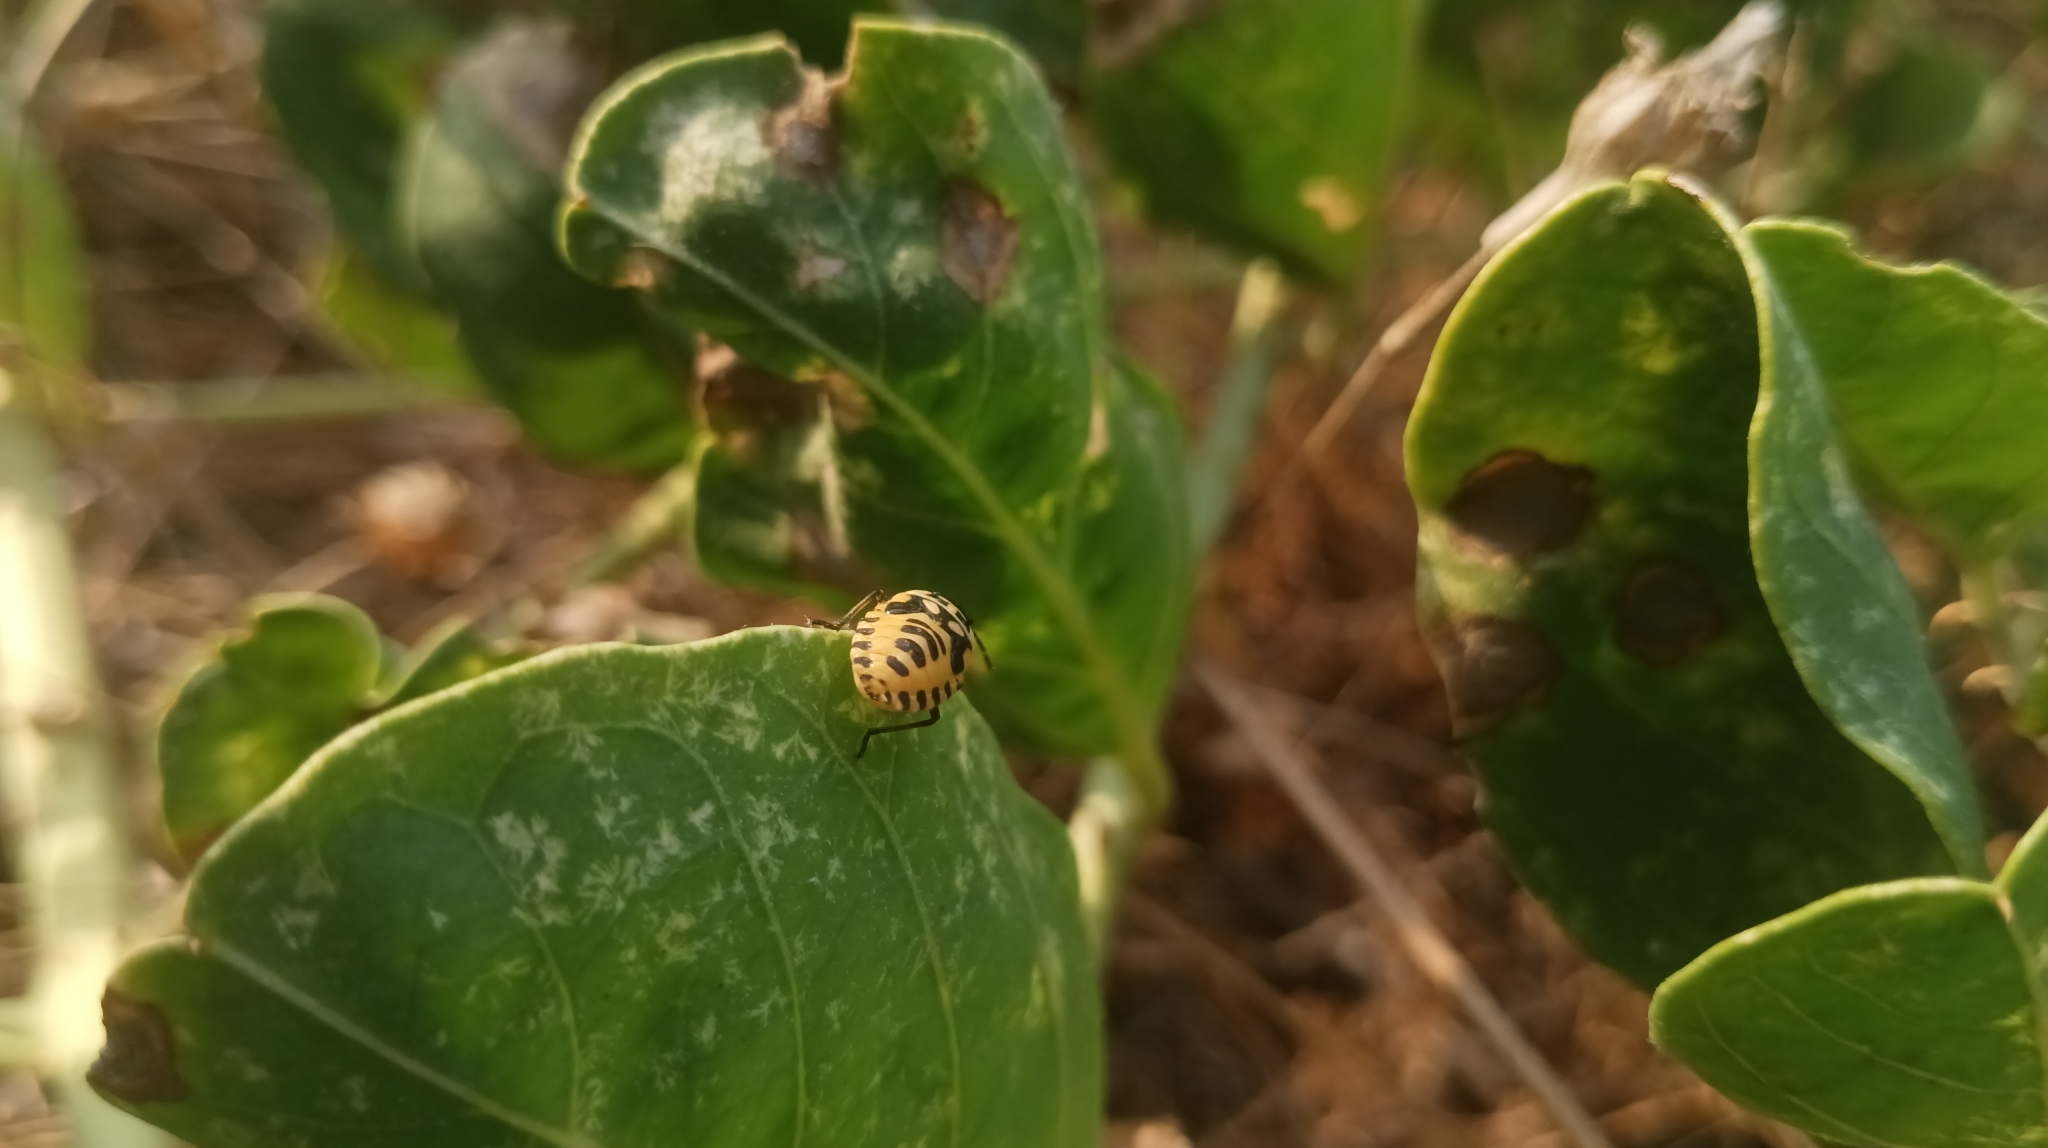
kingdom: Animalia
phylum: Arthropoda
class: Insecta
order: Hemiptera
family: Pentatomidae
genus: Eurydema
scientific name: Eurydema ventralis
